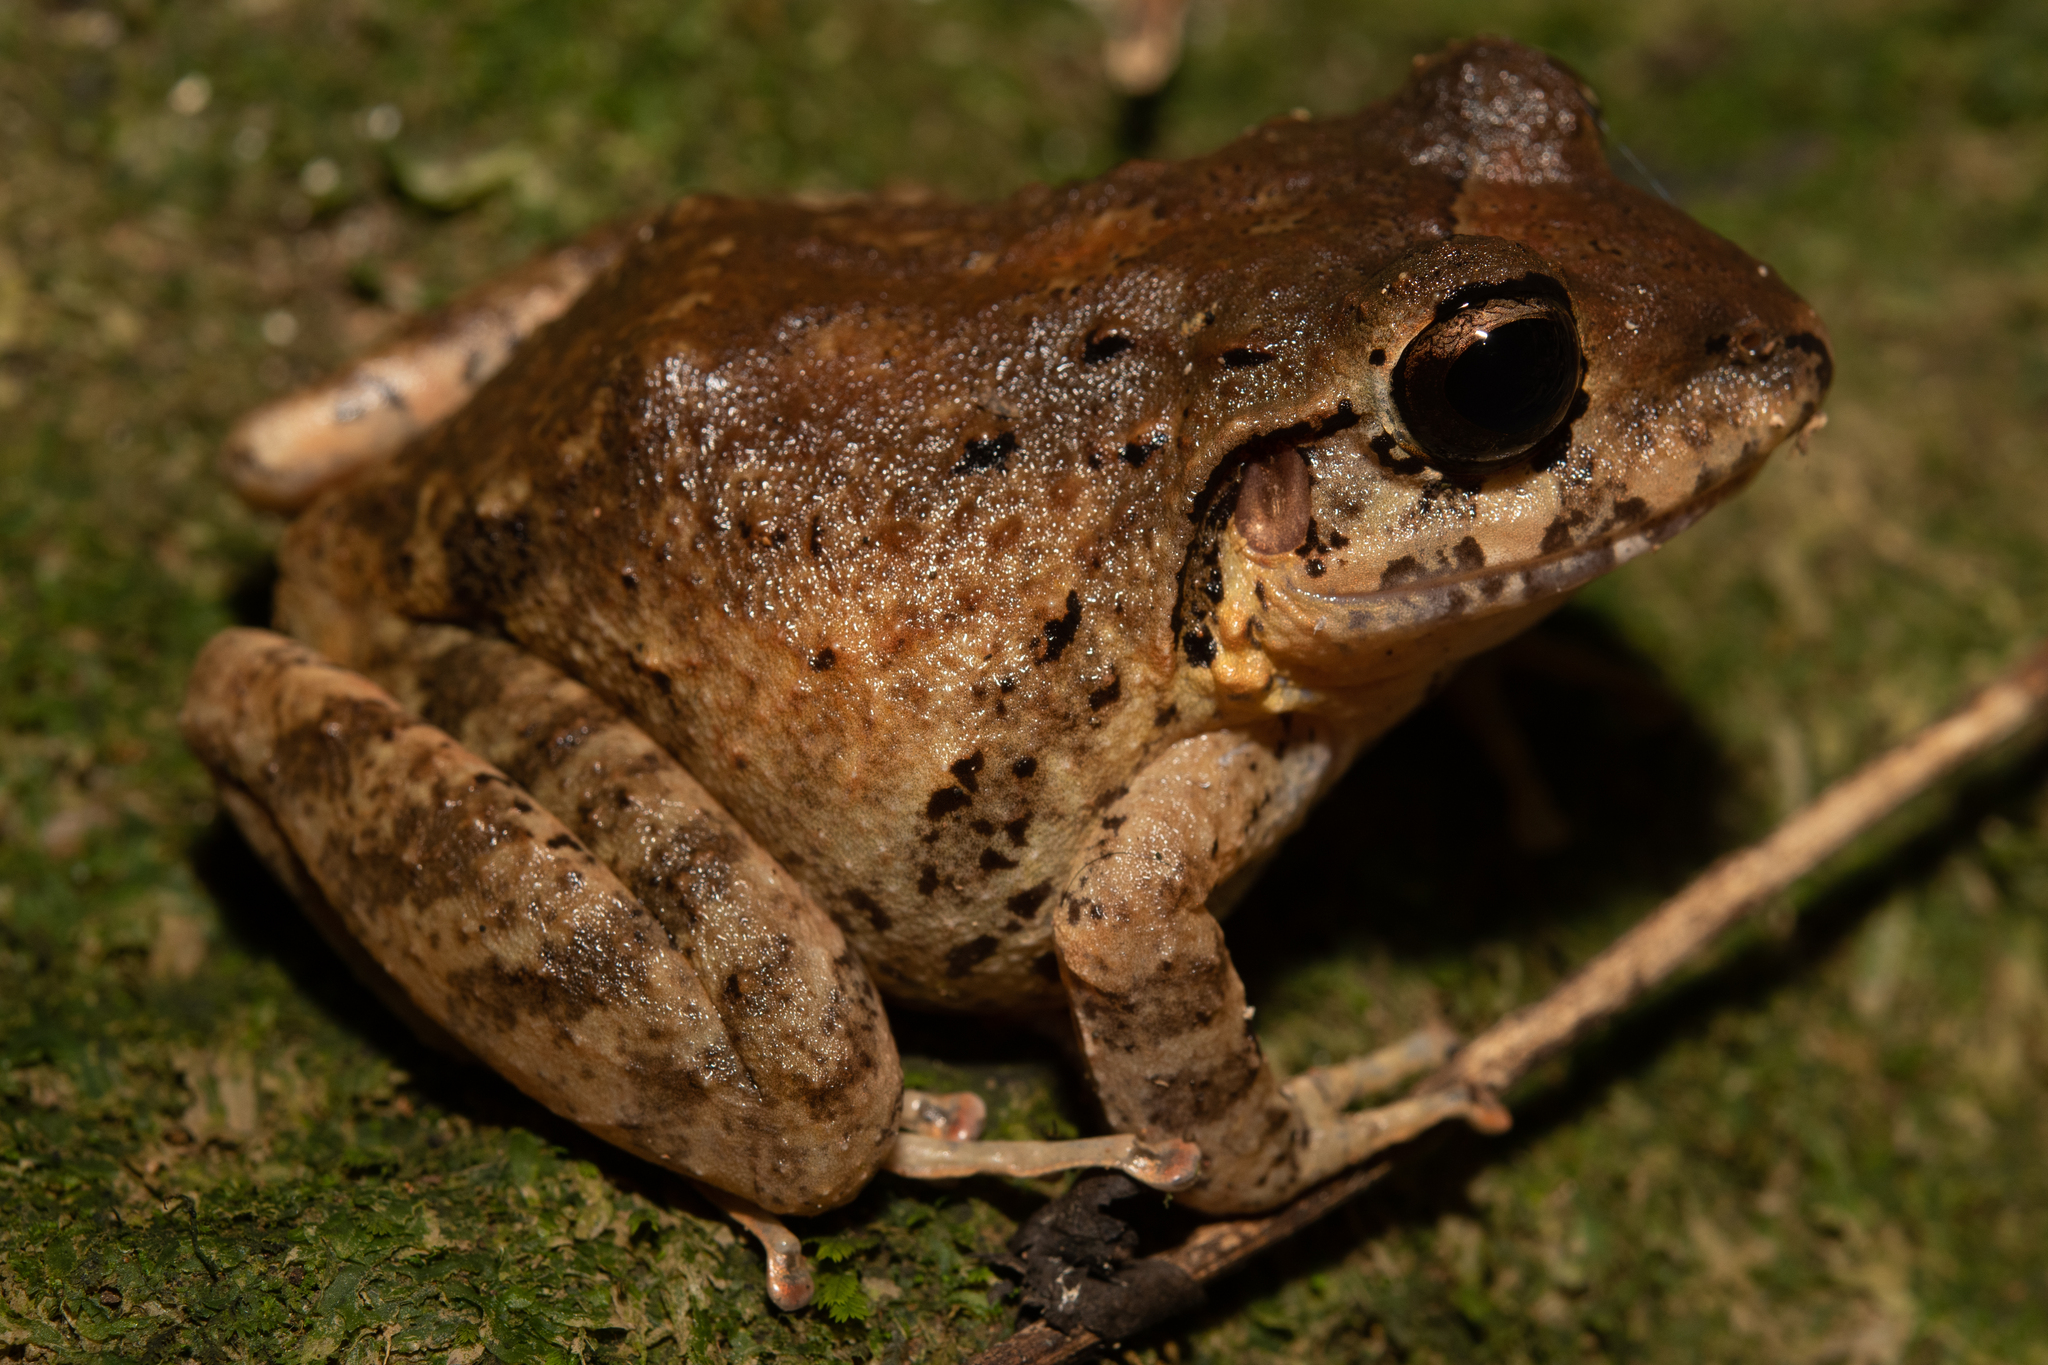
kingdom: Animalia
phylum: Chordata
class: Amphibia
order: Anura
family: Craugastoridae
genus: Craugastor
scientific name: Craugastor laevissimus
